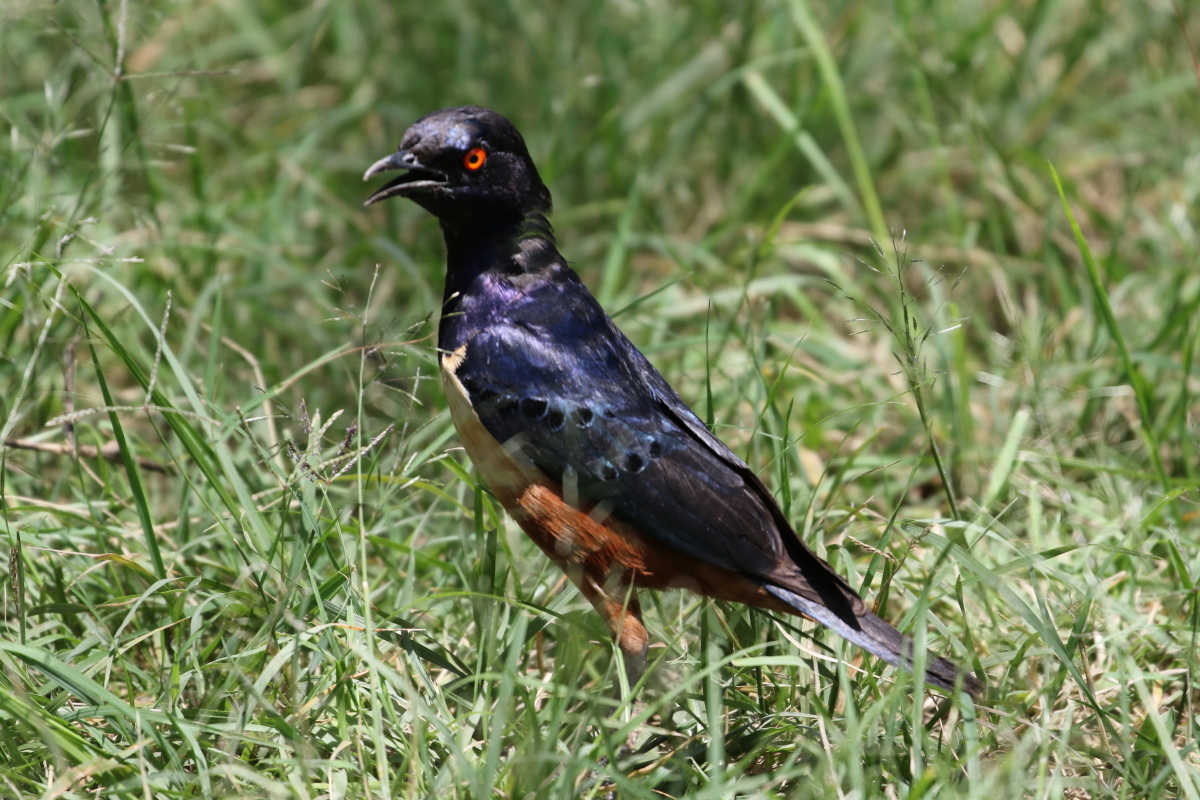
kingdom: Animalia
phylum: Chordata
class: Aves
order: Passeriformes
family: Sturnidae
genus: Lamprotornis
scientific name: Lamprotornis hildebrandti
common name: Hildebrandt's starling
